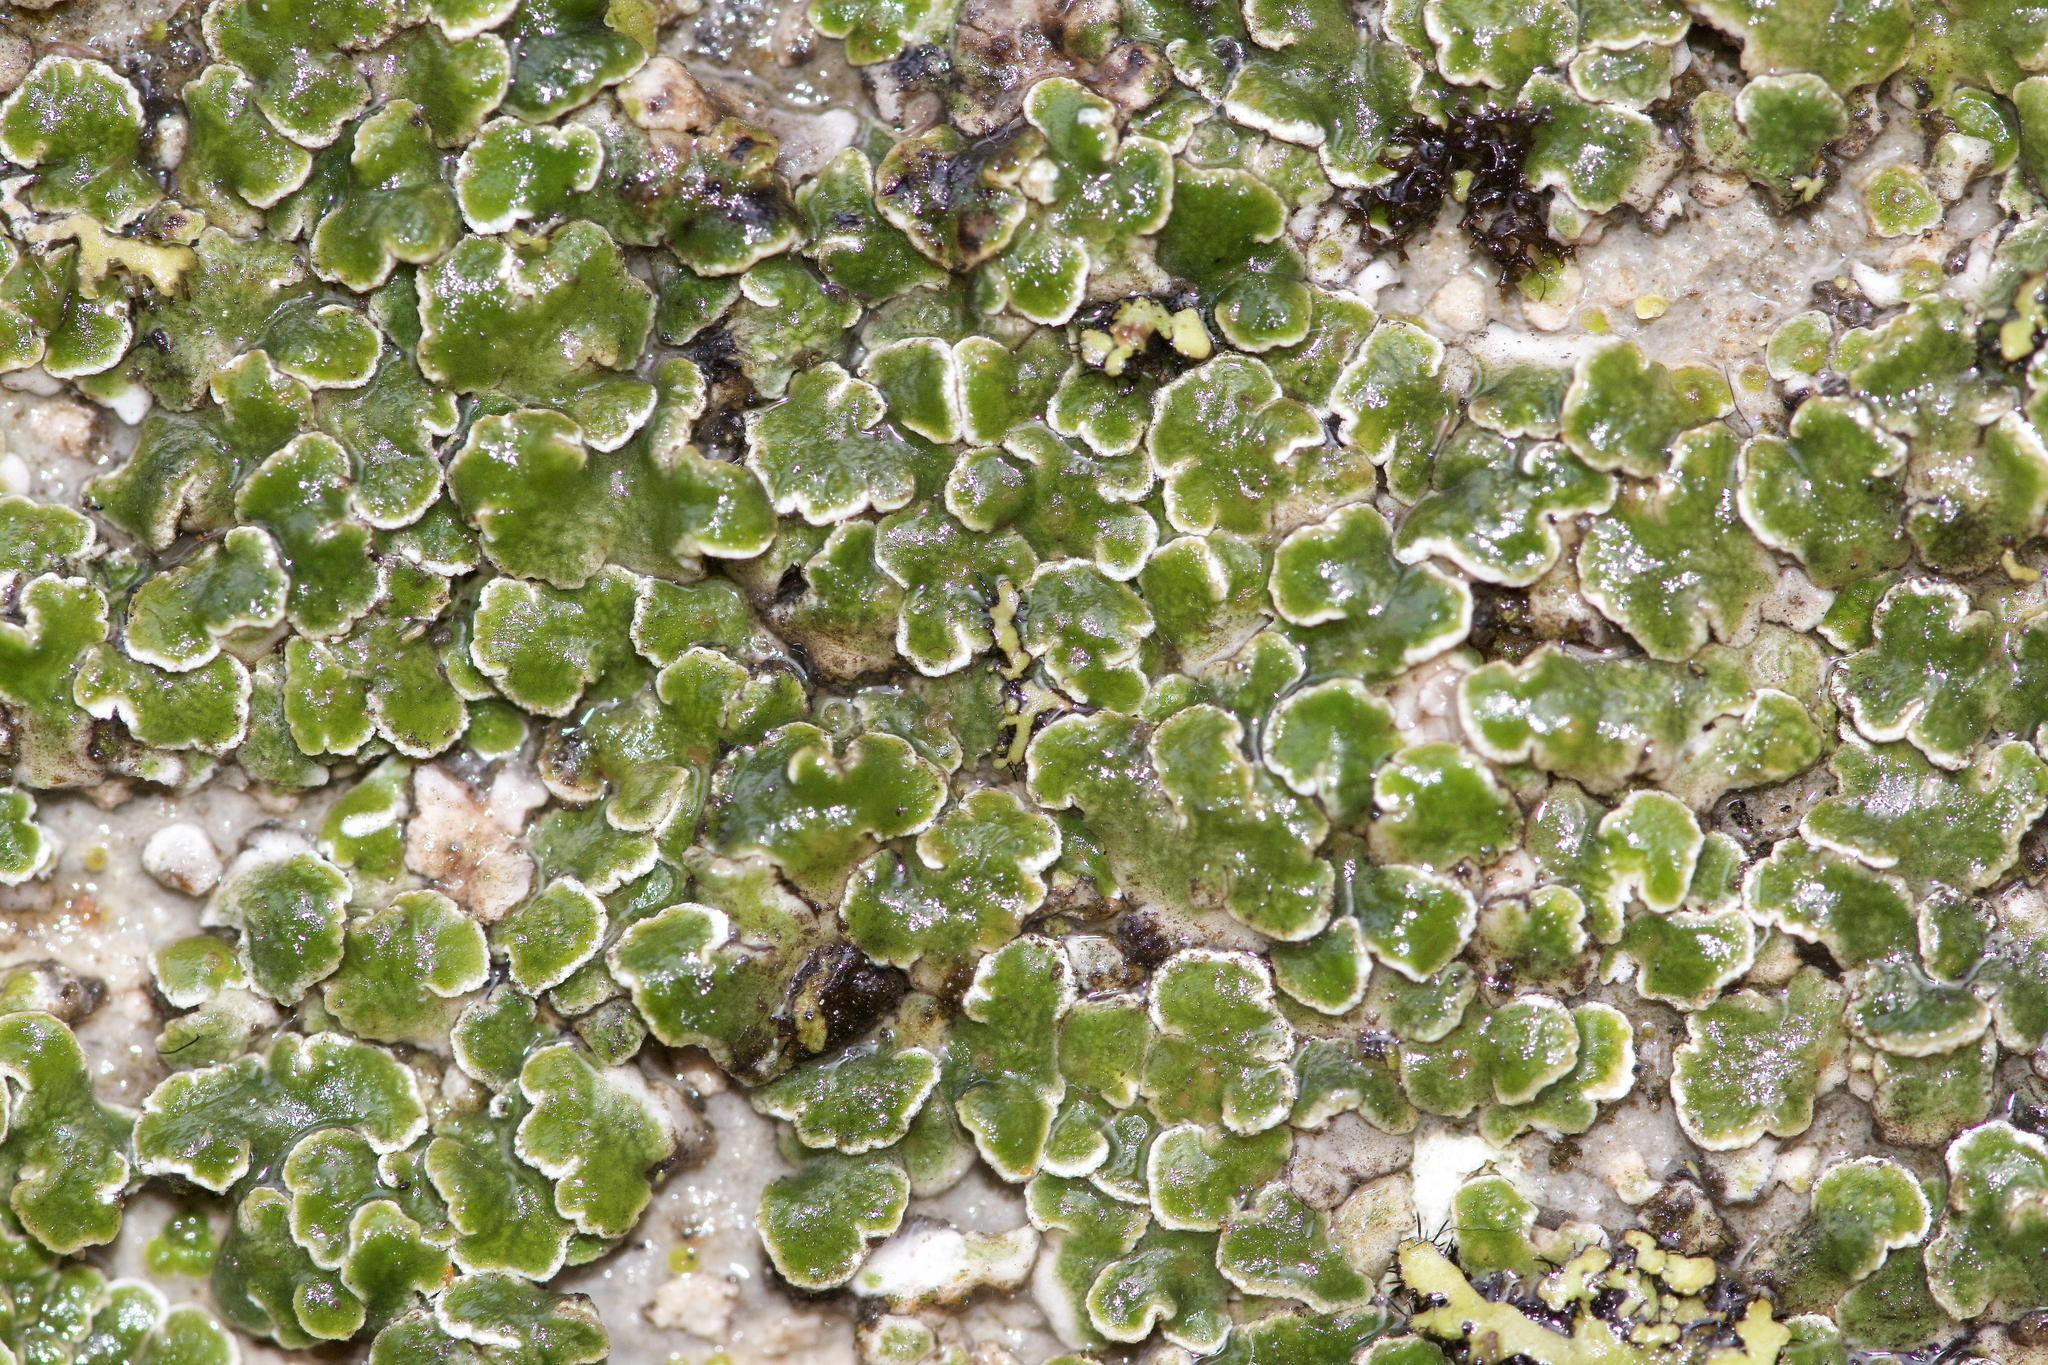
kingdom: Fungi
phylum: Ascomycota
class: Lecanoromycetes
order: Acarosporales
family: Acarosporaceae
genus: Sarcogyne
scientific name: Sarcogyne wheeleri
